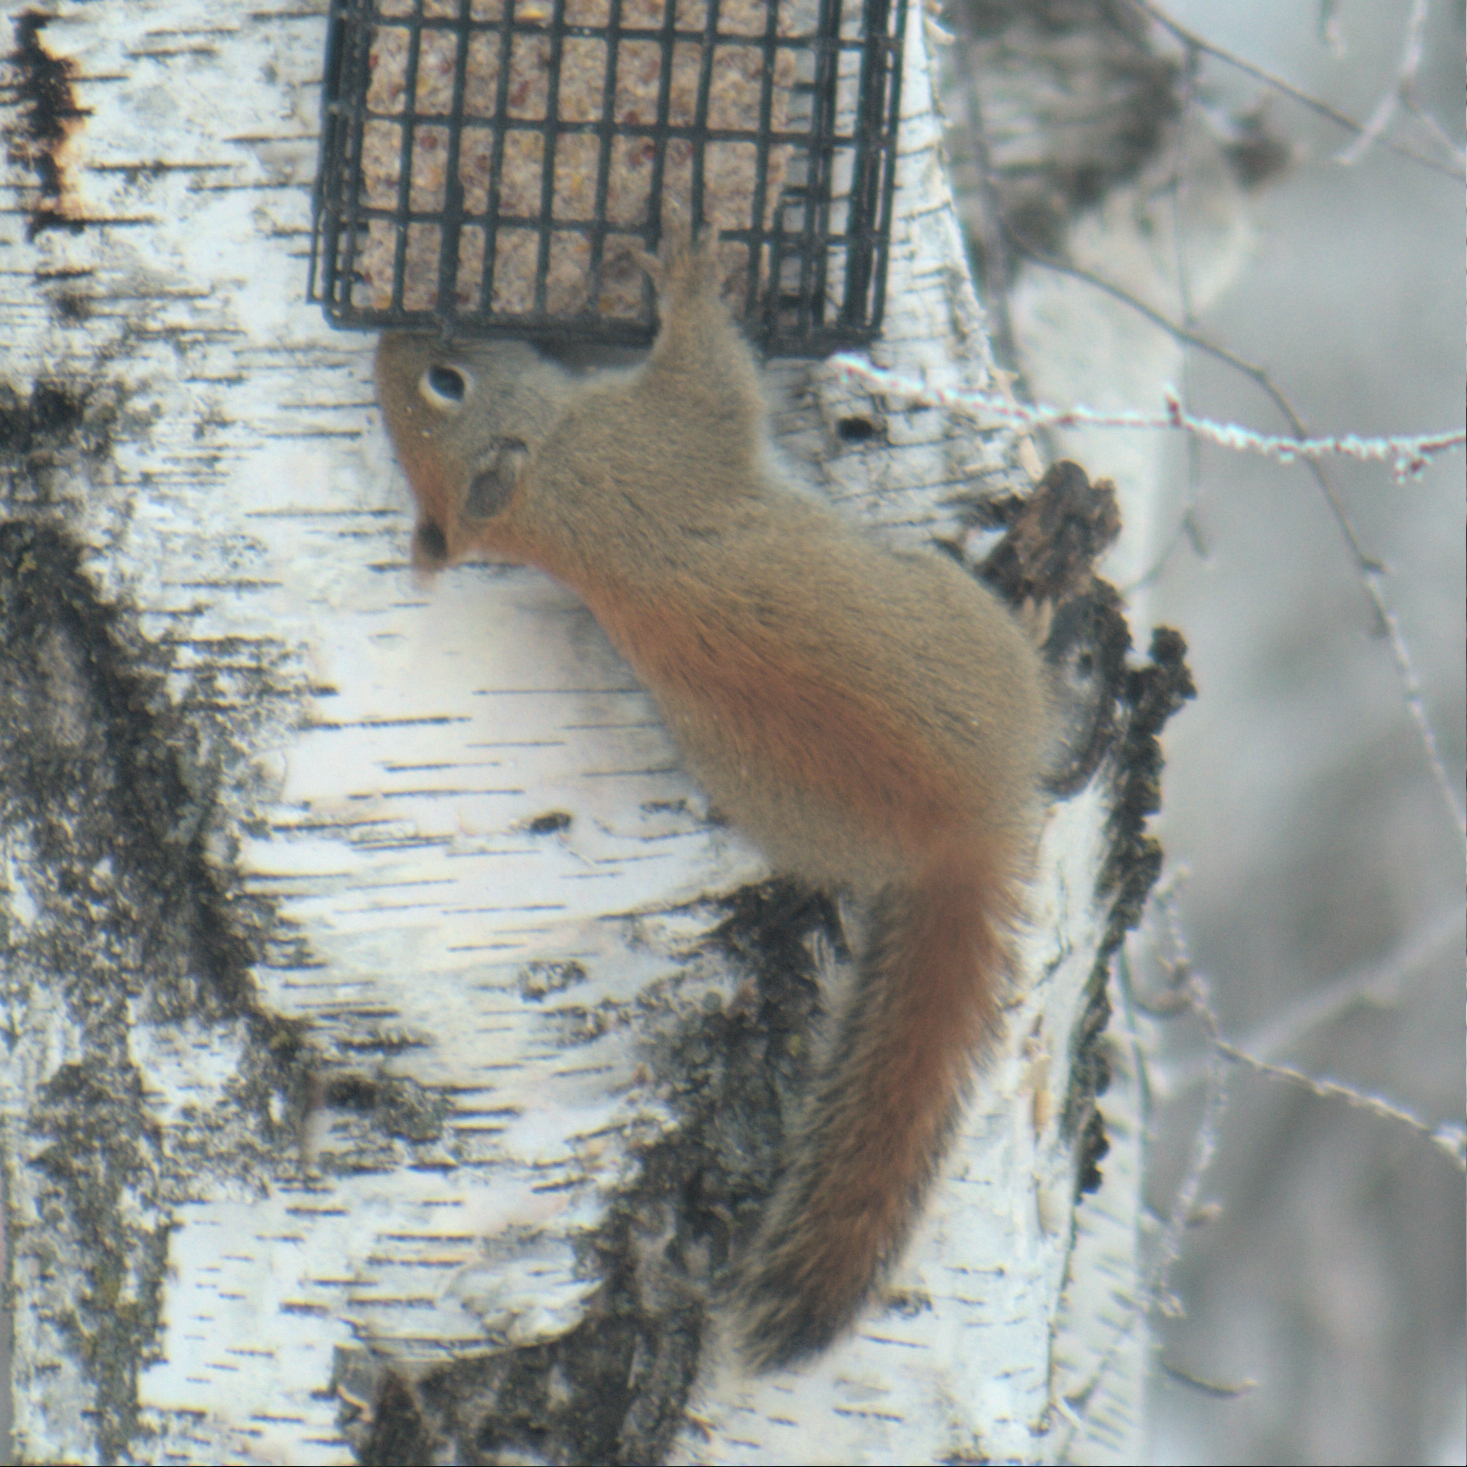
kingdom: Animalia
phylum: Chordata
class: Mammalia
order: Rodentia
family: Sciuridae
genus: Tamiasciurus
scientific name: Tamiasciurus hudsonicus
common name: Red squirrel
